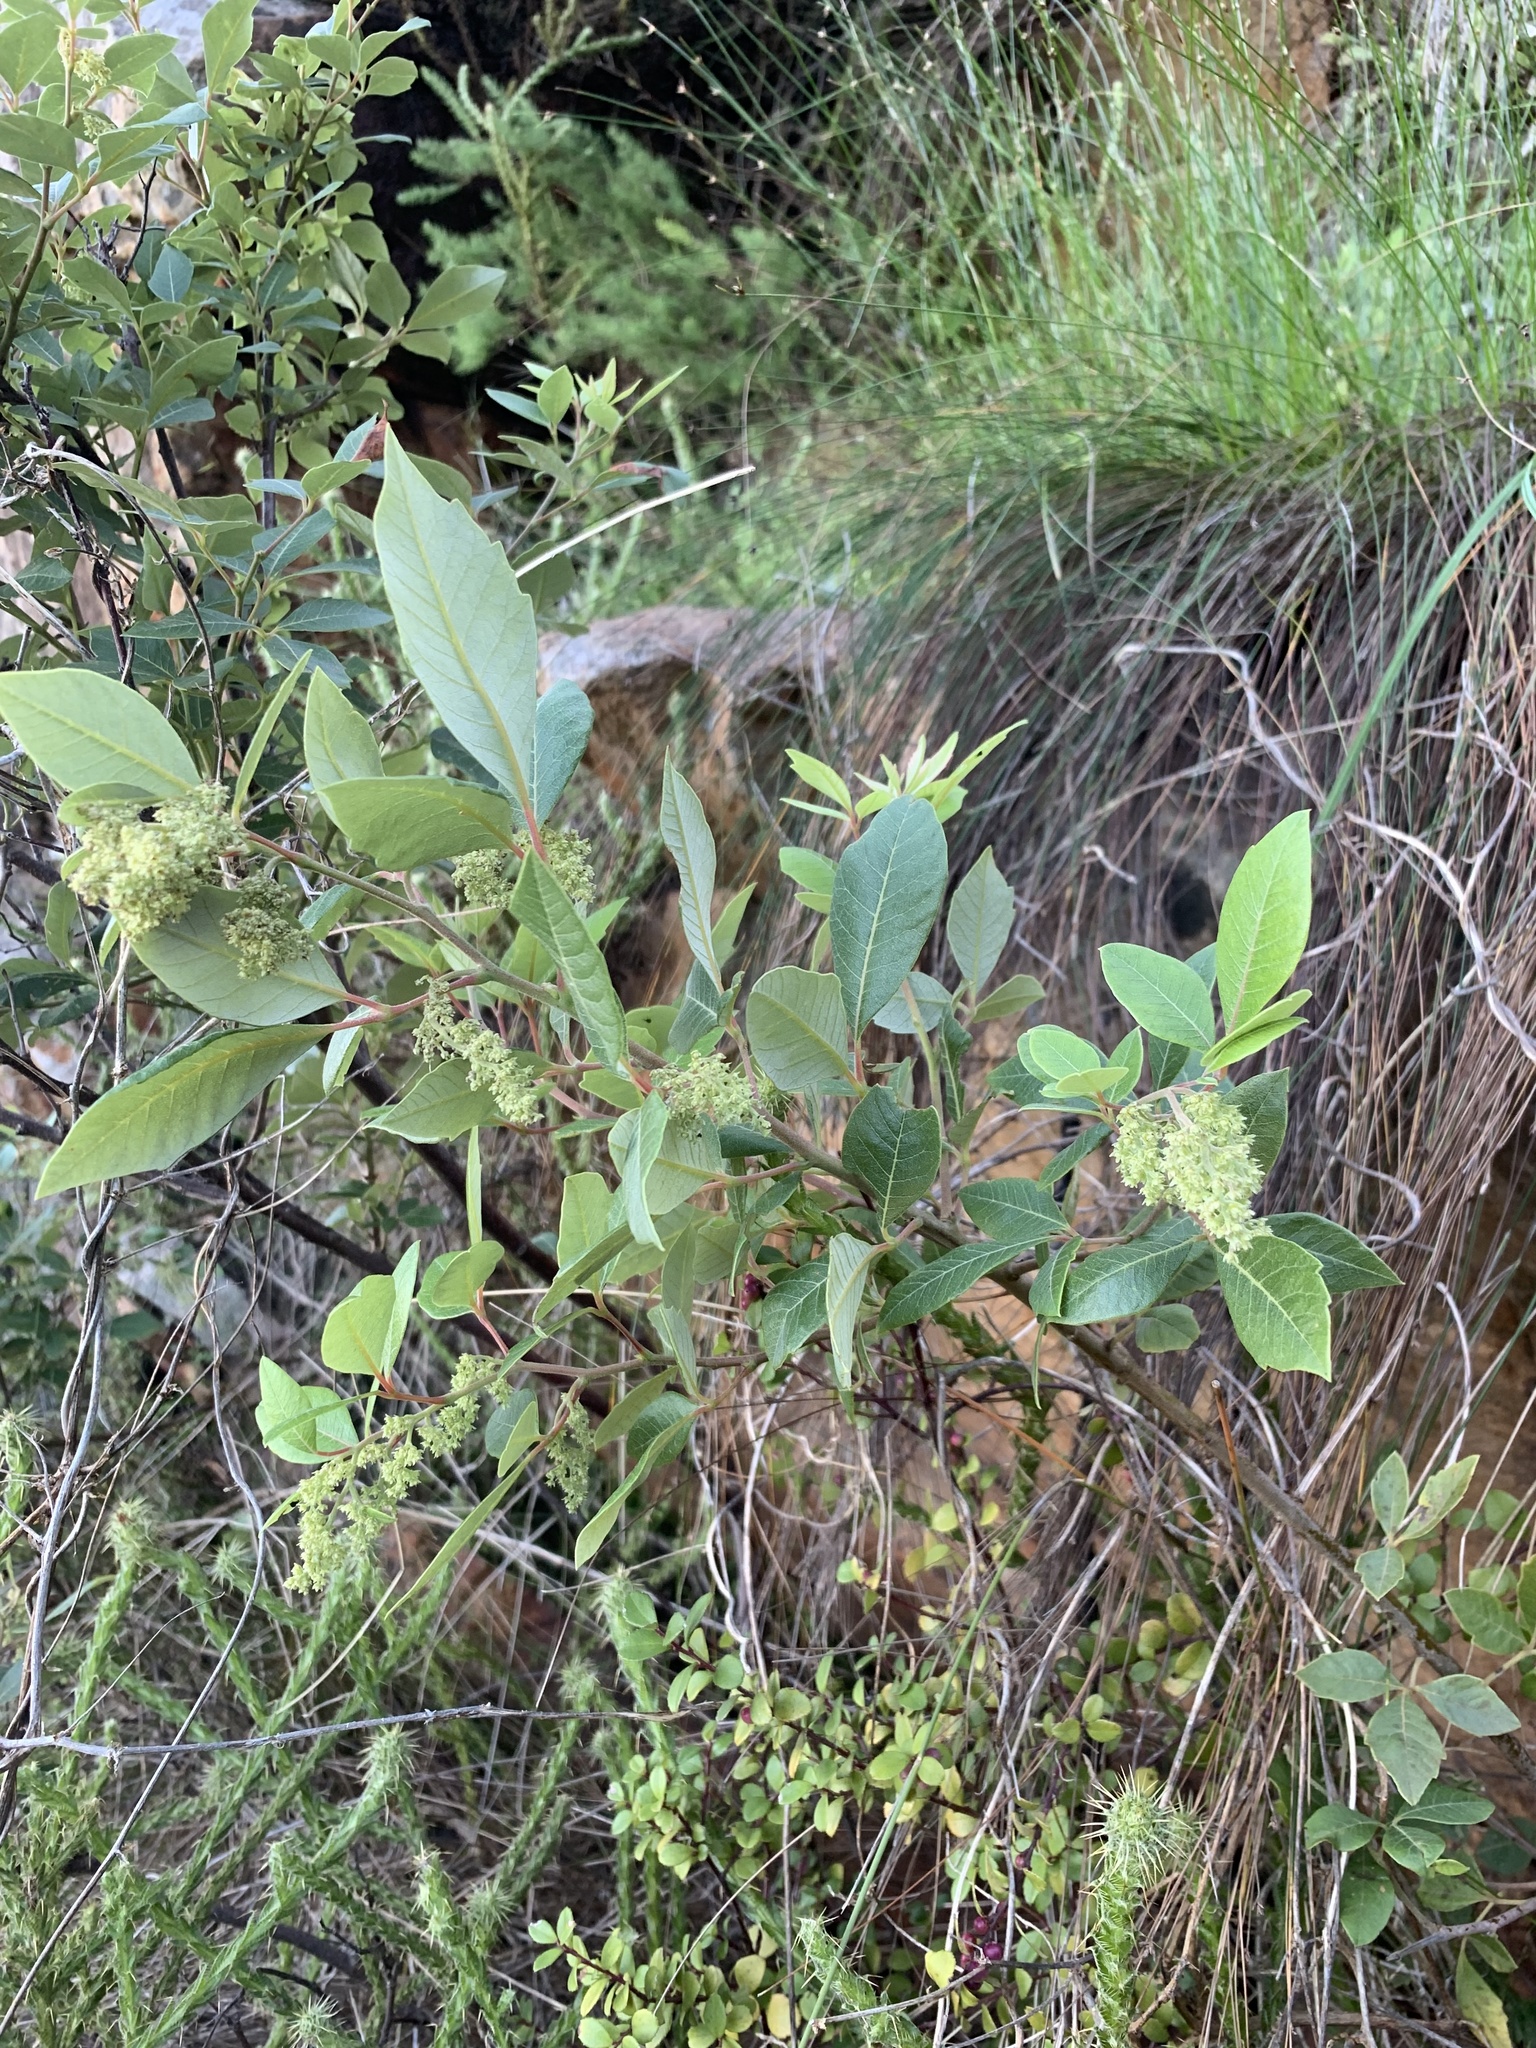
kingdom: Plantae
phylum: Tracheophyta
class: Magnoliopsida
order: Sapindales
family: Anacardiaceae
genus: Searsia
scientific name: Searsia tomentosa
